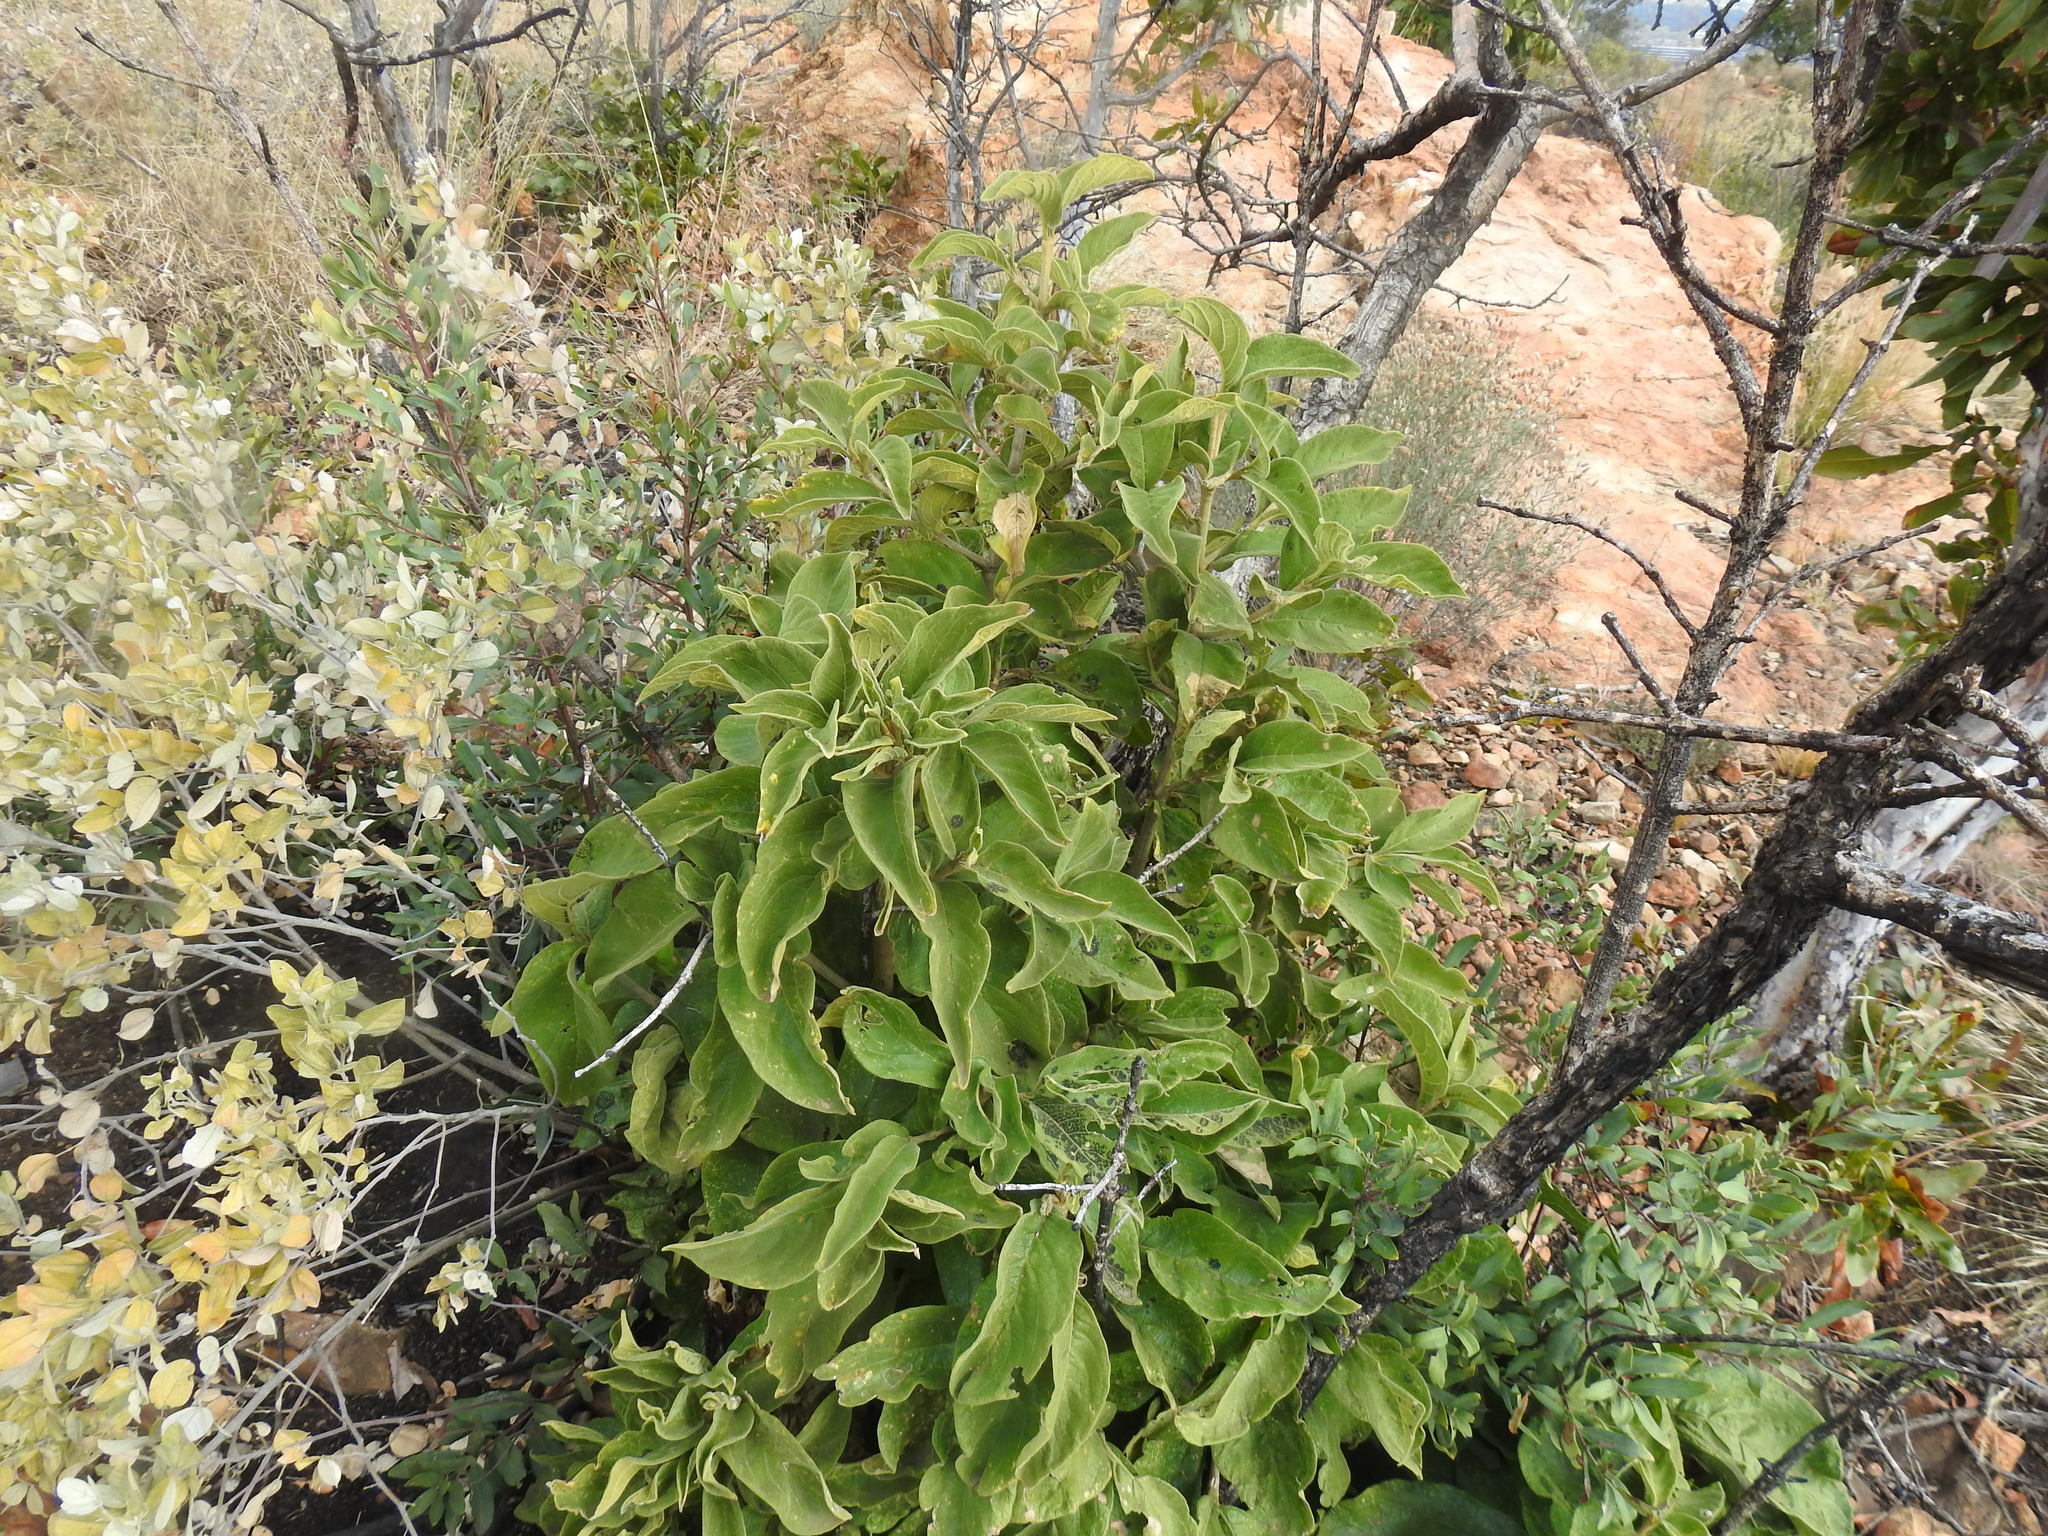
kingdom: Plantae
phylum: Tracheophyta
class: Magnoliopsida
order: Gentianales
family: Rubiaceae
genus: Vangueria
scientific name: Vangueria infausta
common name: Medlar
